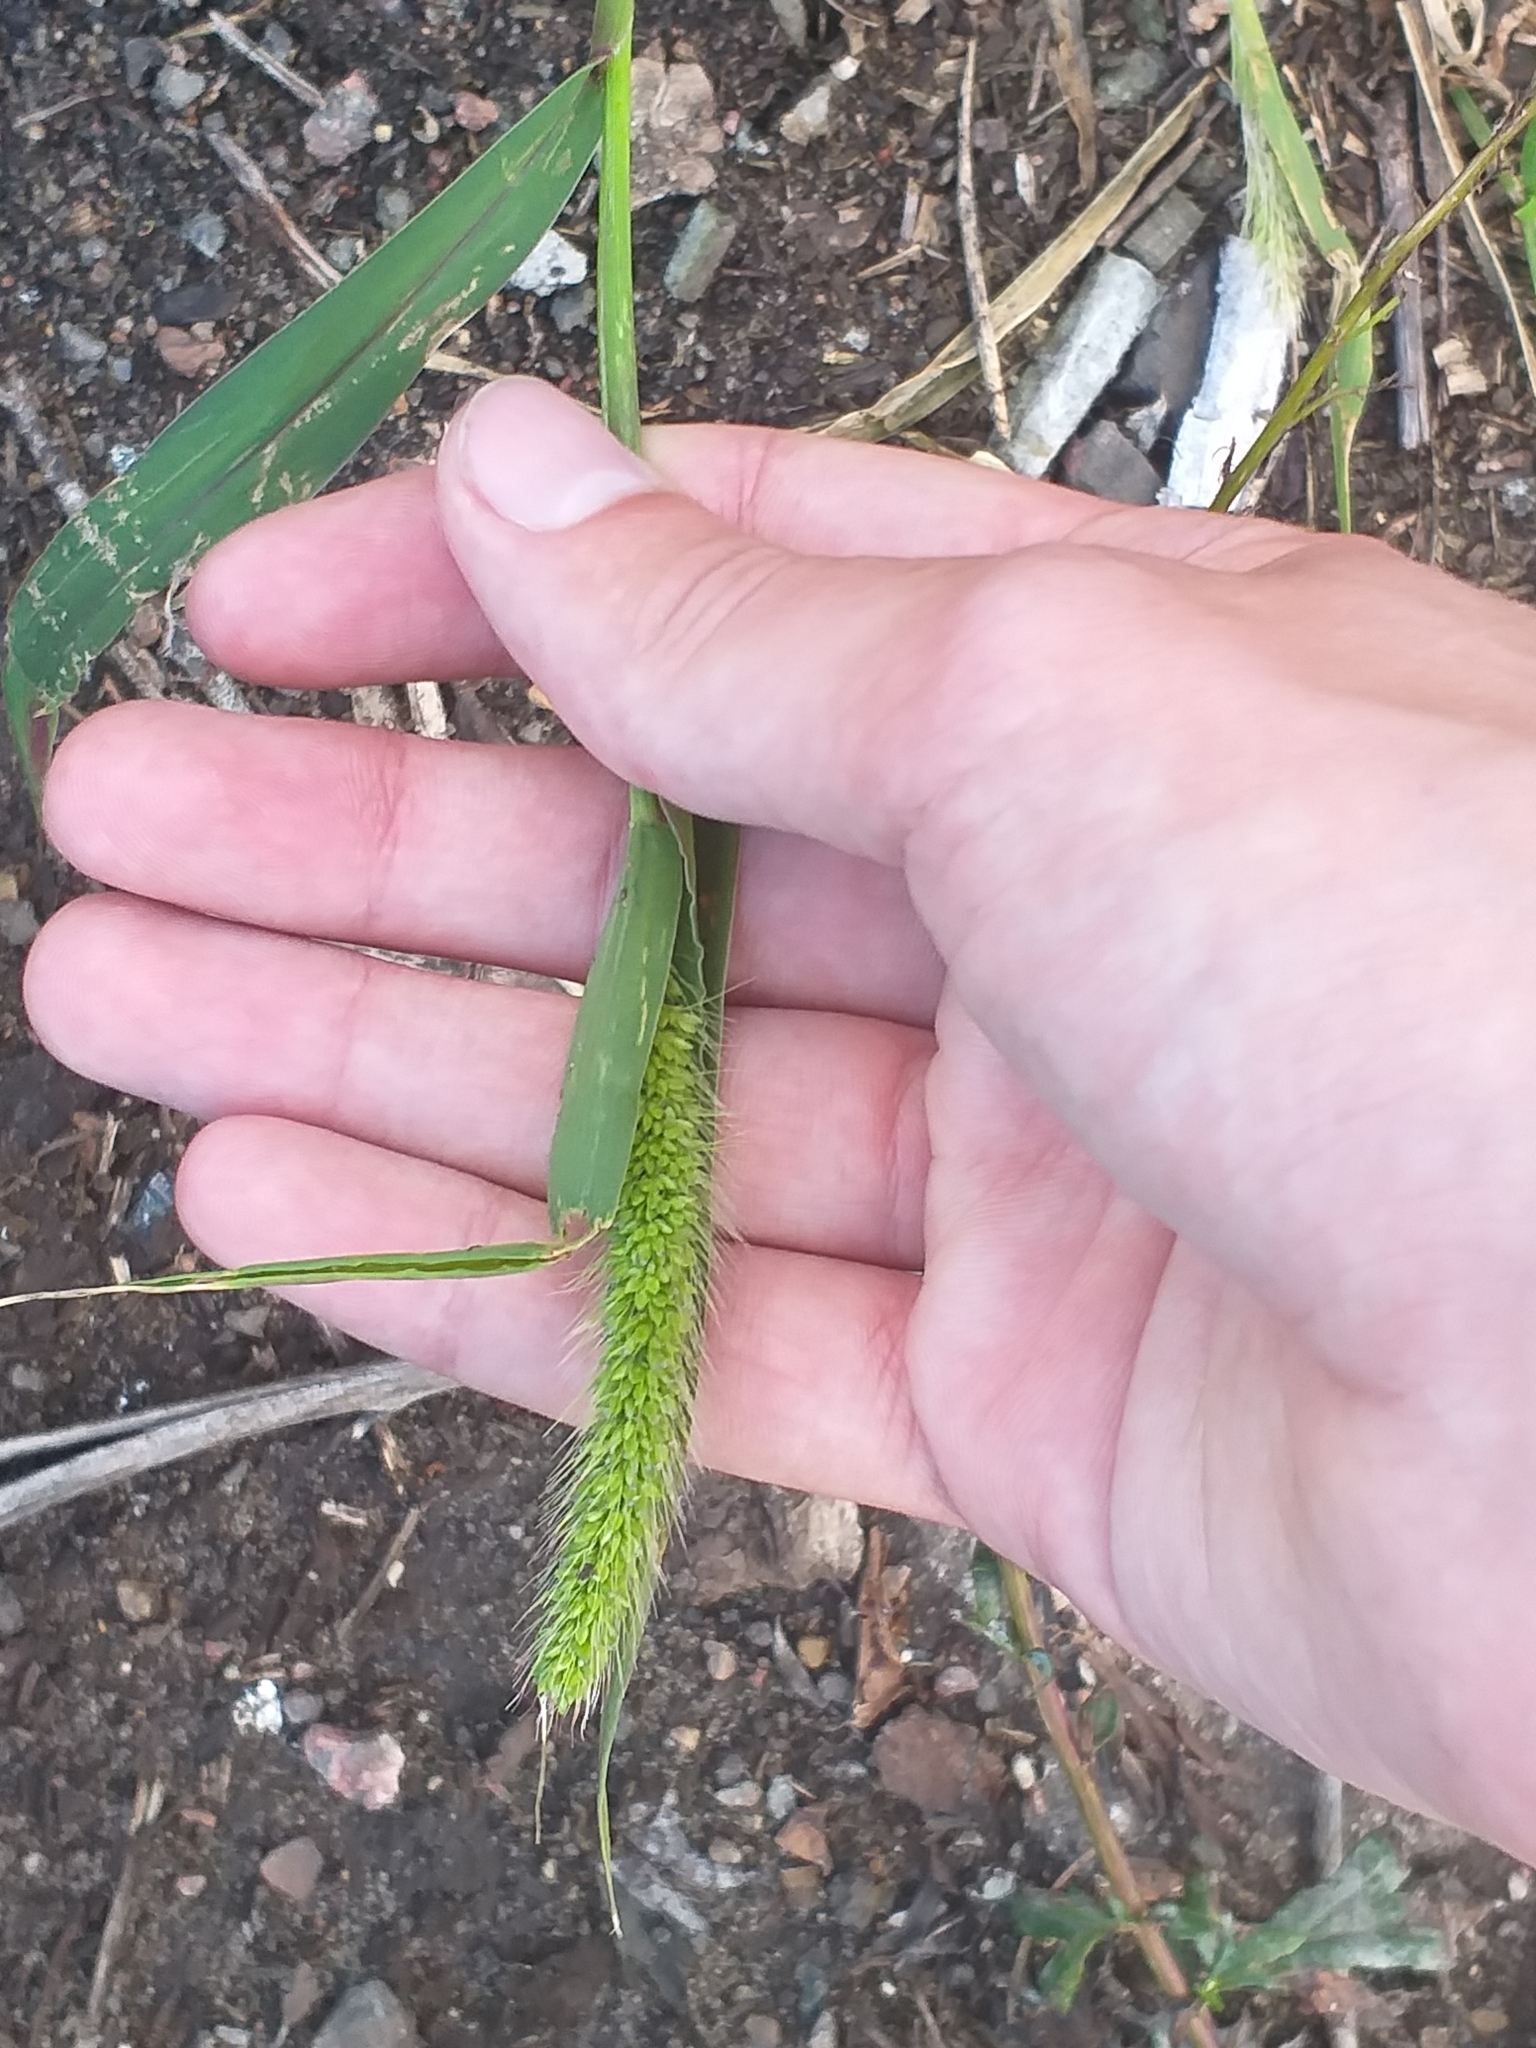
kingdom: Plantae
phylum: Tracheophyta
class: Liliopsida
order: Poales
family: Poaceae
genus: Setaria
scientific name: Setaria viridis
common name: Green bristlegrass
